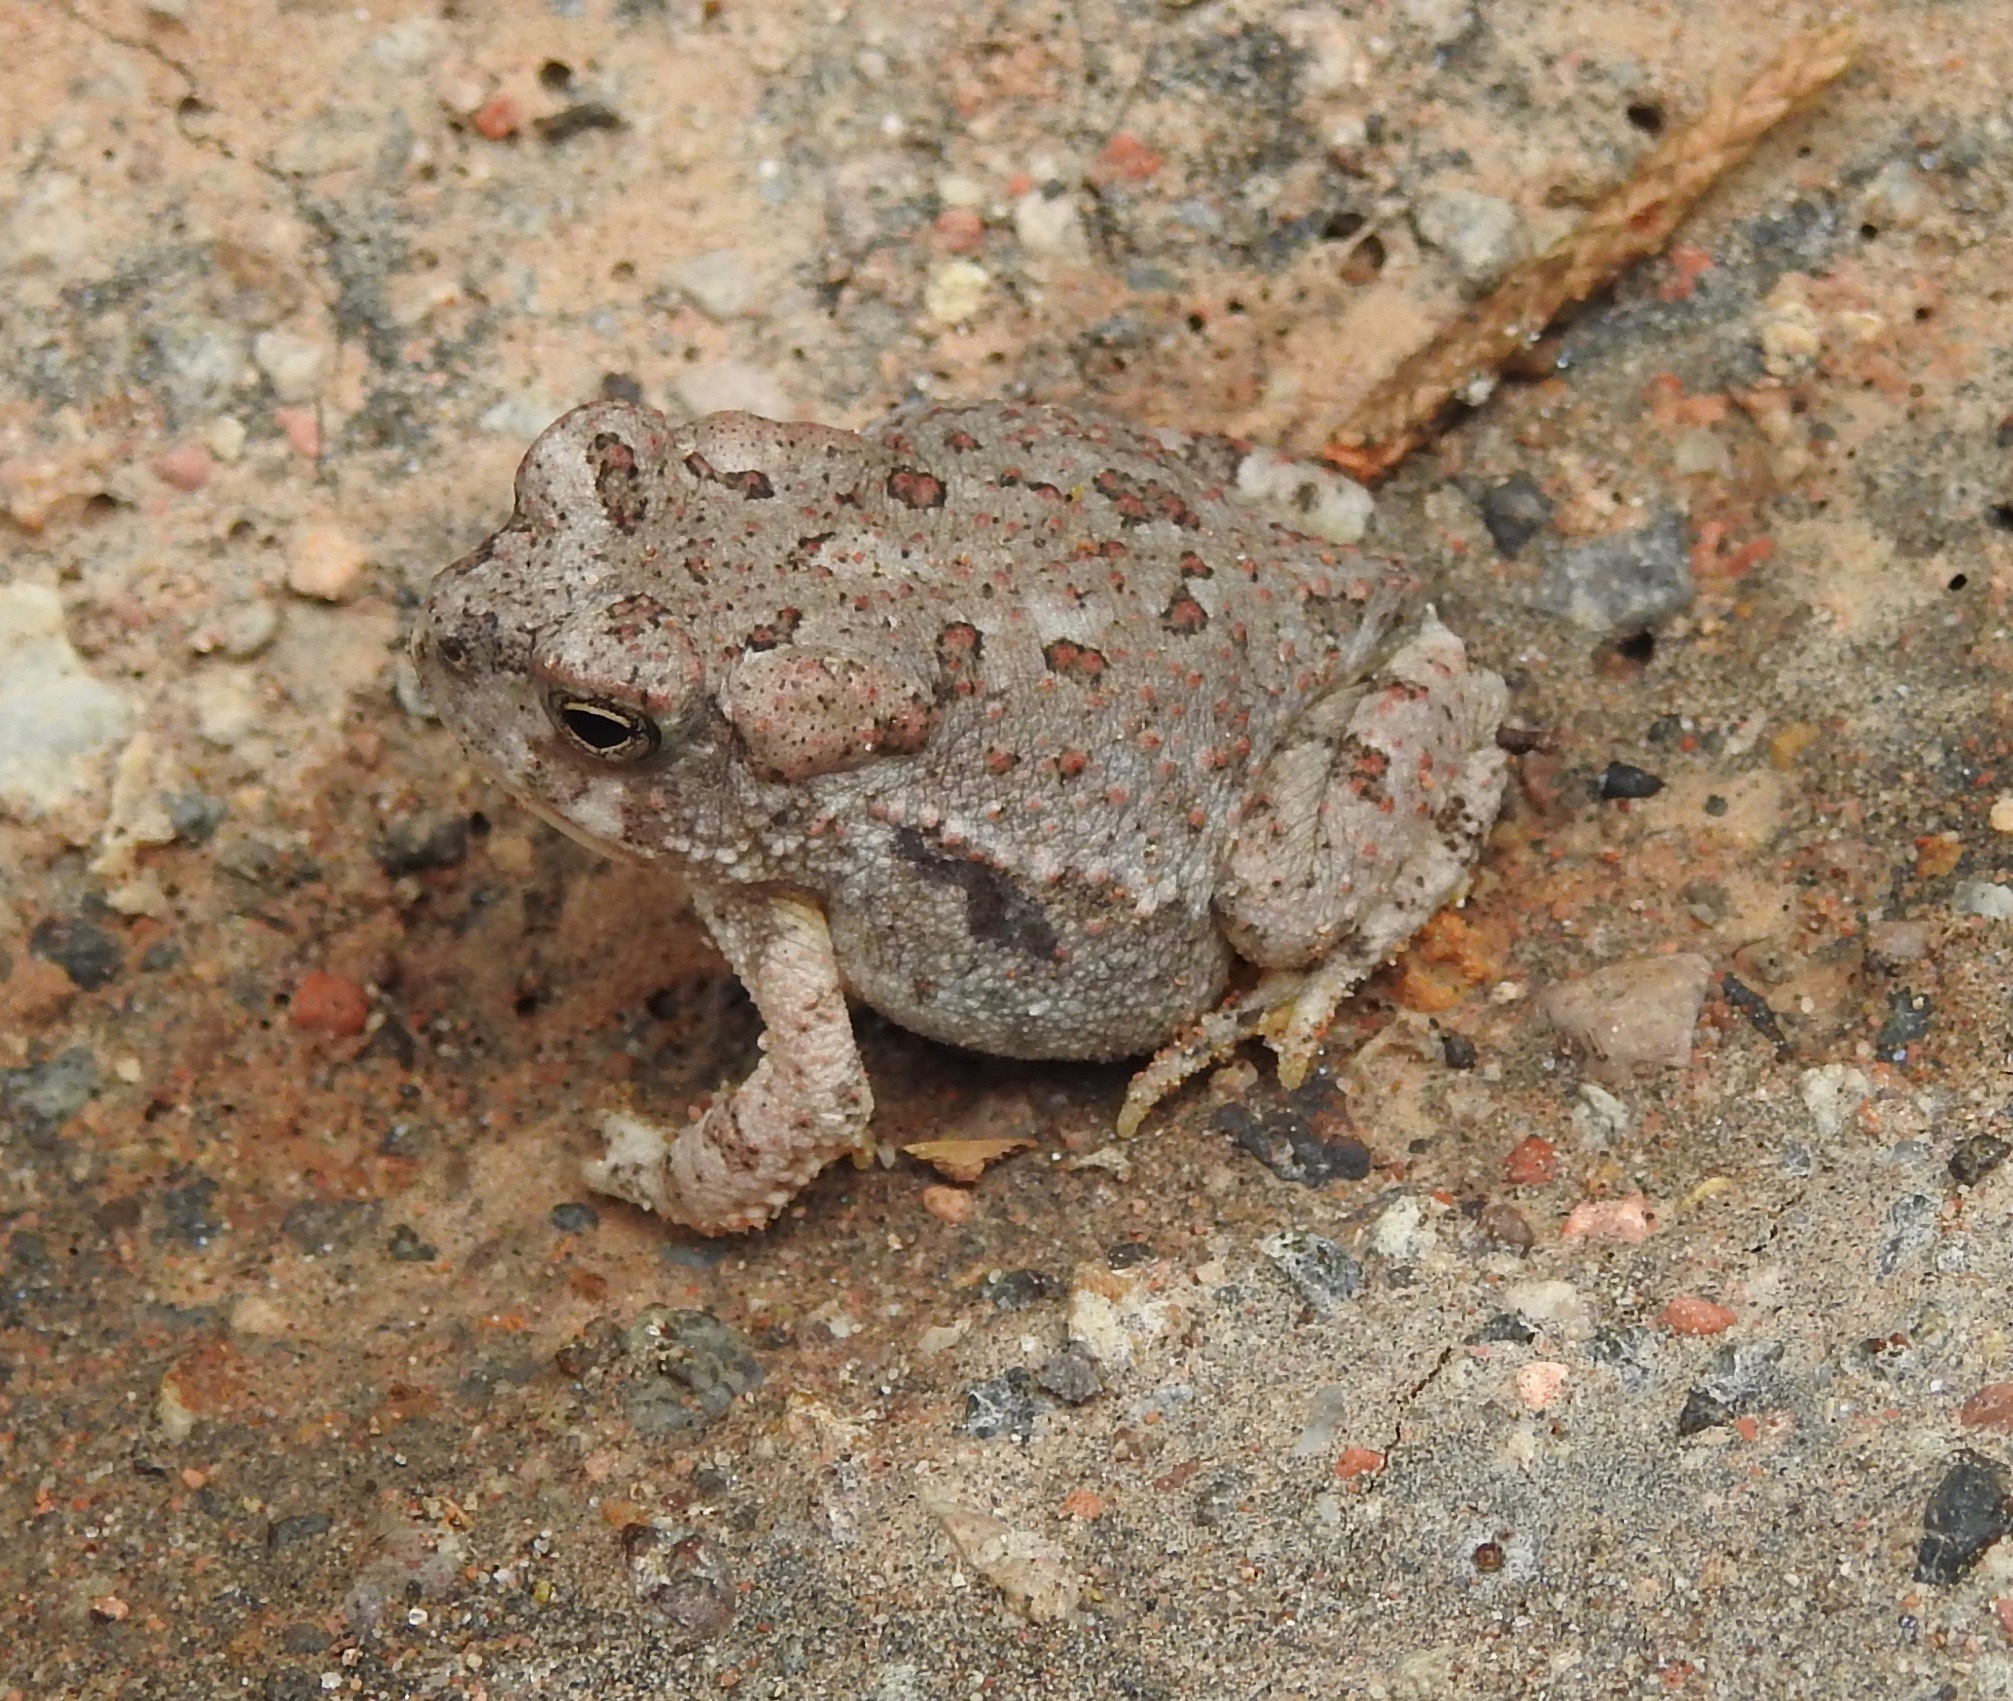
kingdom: Animalia
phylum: Chordata
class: Amphibia
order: Anura
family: Bufonidae
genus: Anaxyrus
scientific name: Anaxyrus microscaphus
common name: Arizona toad
